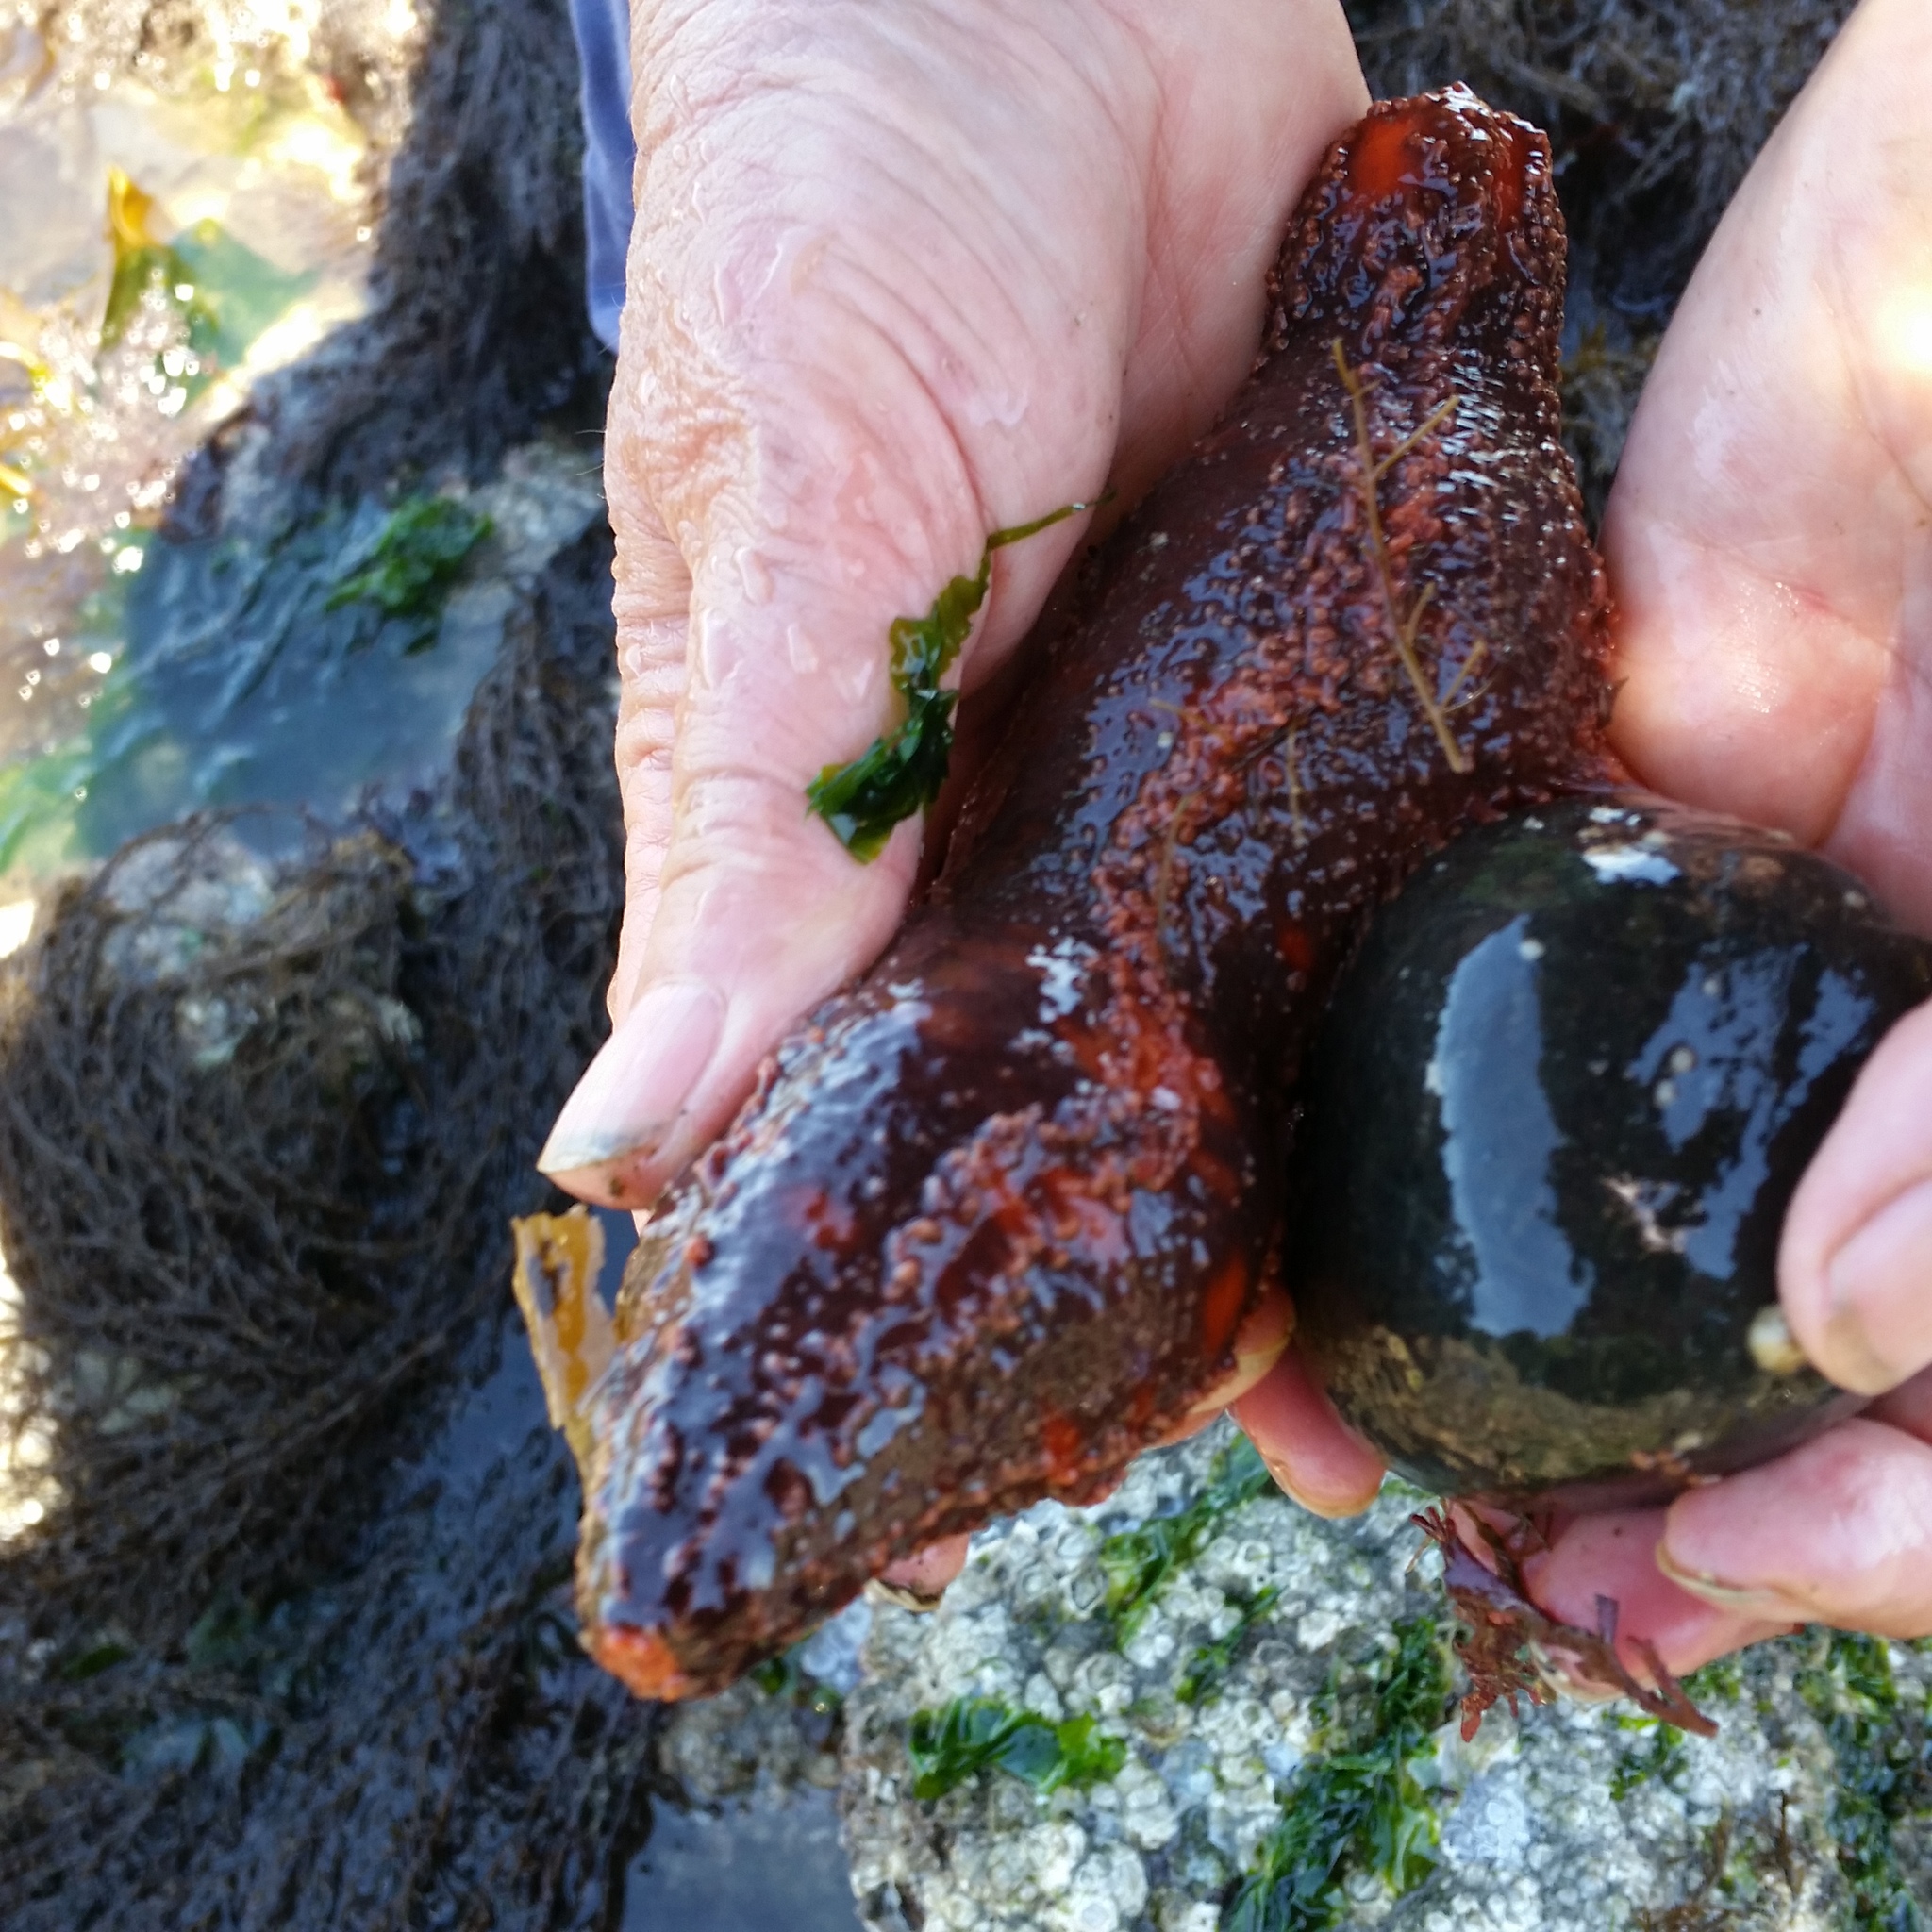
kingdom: Animalia
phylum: Echinodermata
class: Holothuroidea
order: Dendrochirotida
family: Cucumariidae
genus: Cucumaria
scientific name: Cucumaria miniata
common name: Orange sea cucumber
